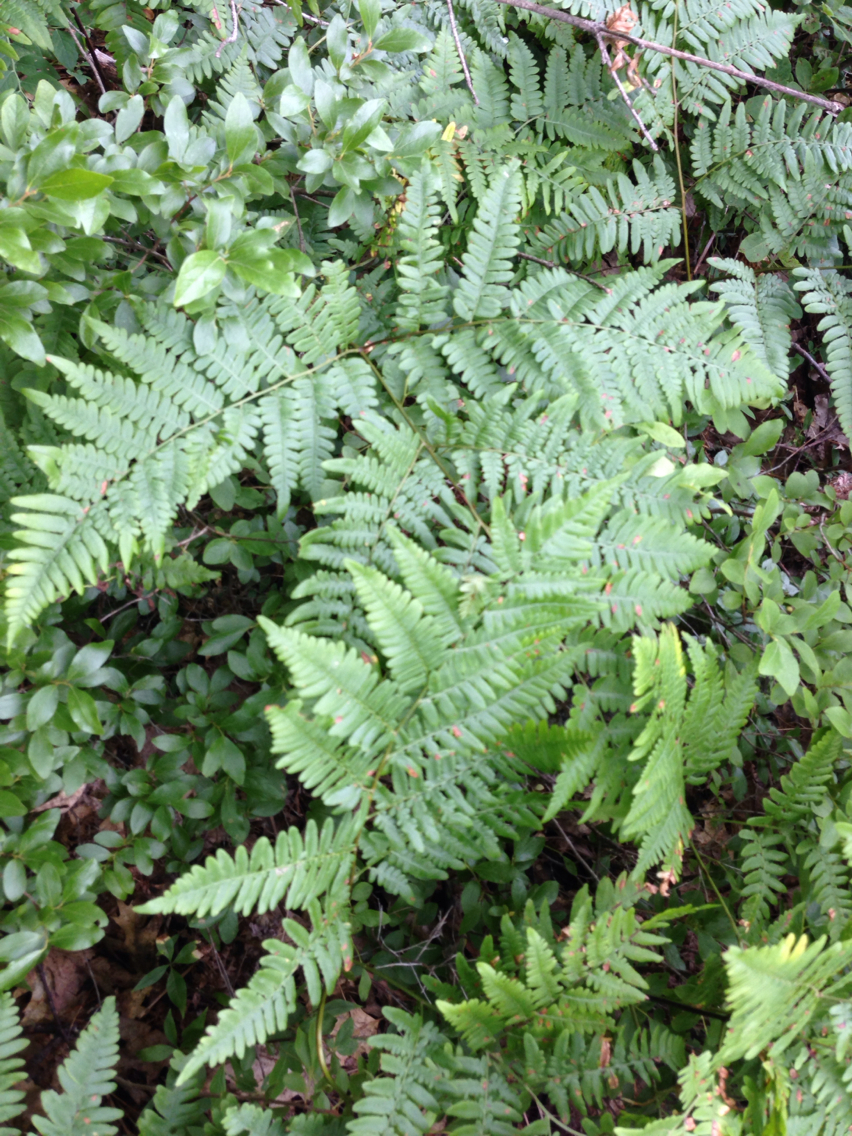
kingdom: Plantae
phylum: Tracheophyta
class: Polypodiopsida
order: Polypodiales
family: Dennstaedtiaceae
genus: Pteridium
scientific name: Pteridium aquilinum
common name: Bracken
